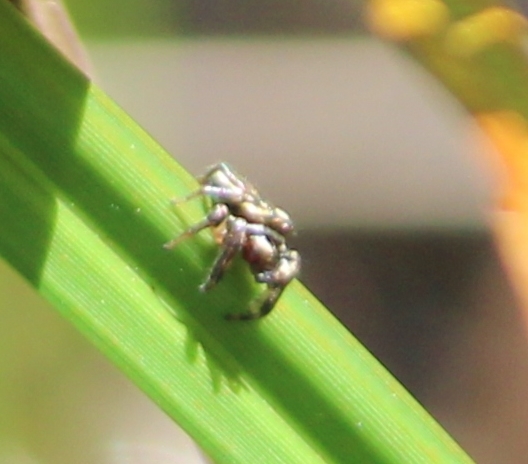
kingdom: Animalia
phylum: Arthropoda
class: Arachnida
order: Araneae
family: Salticidae
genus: Eris
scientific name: Eris flava
